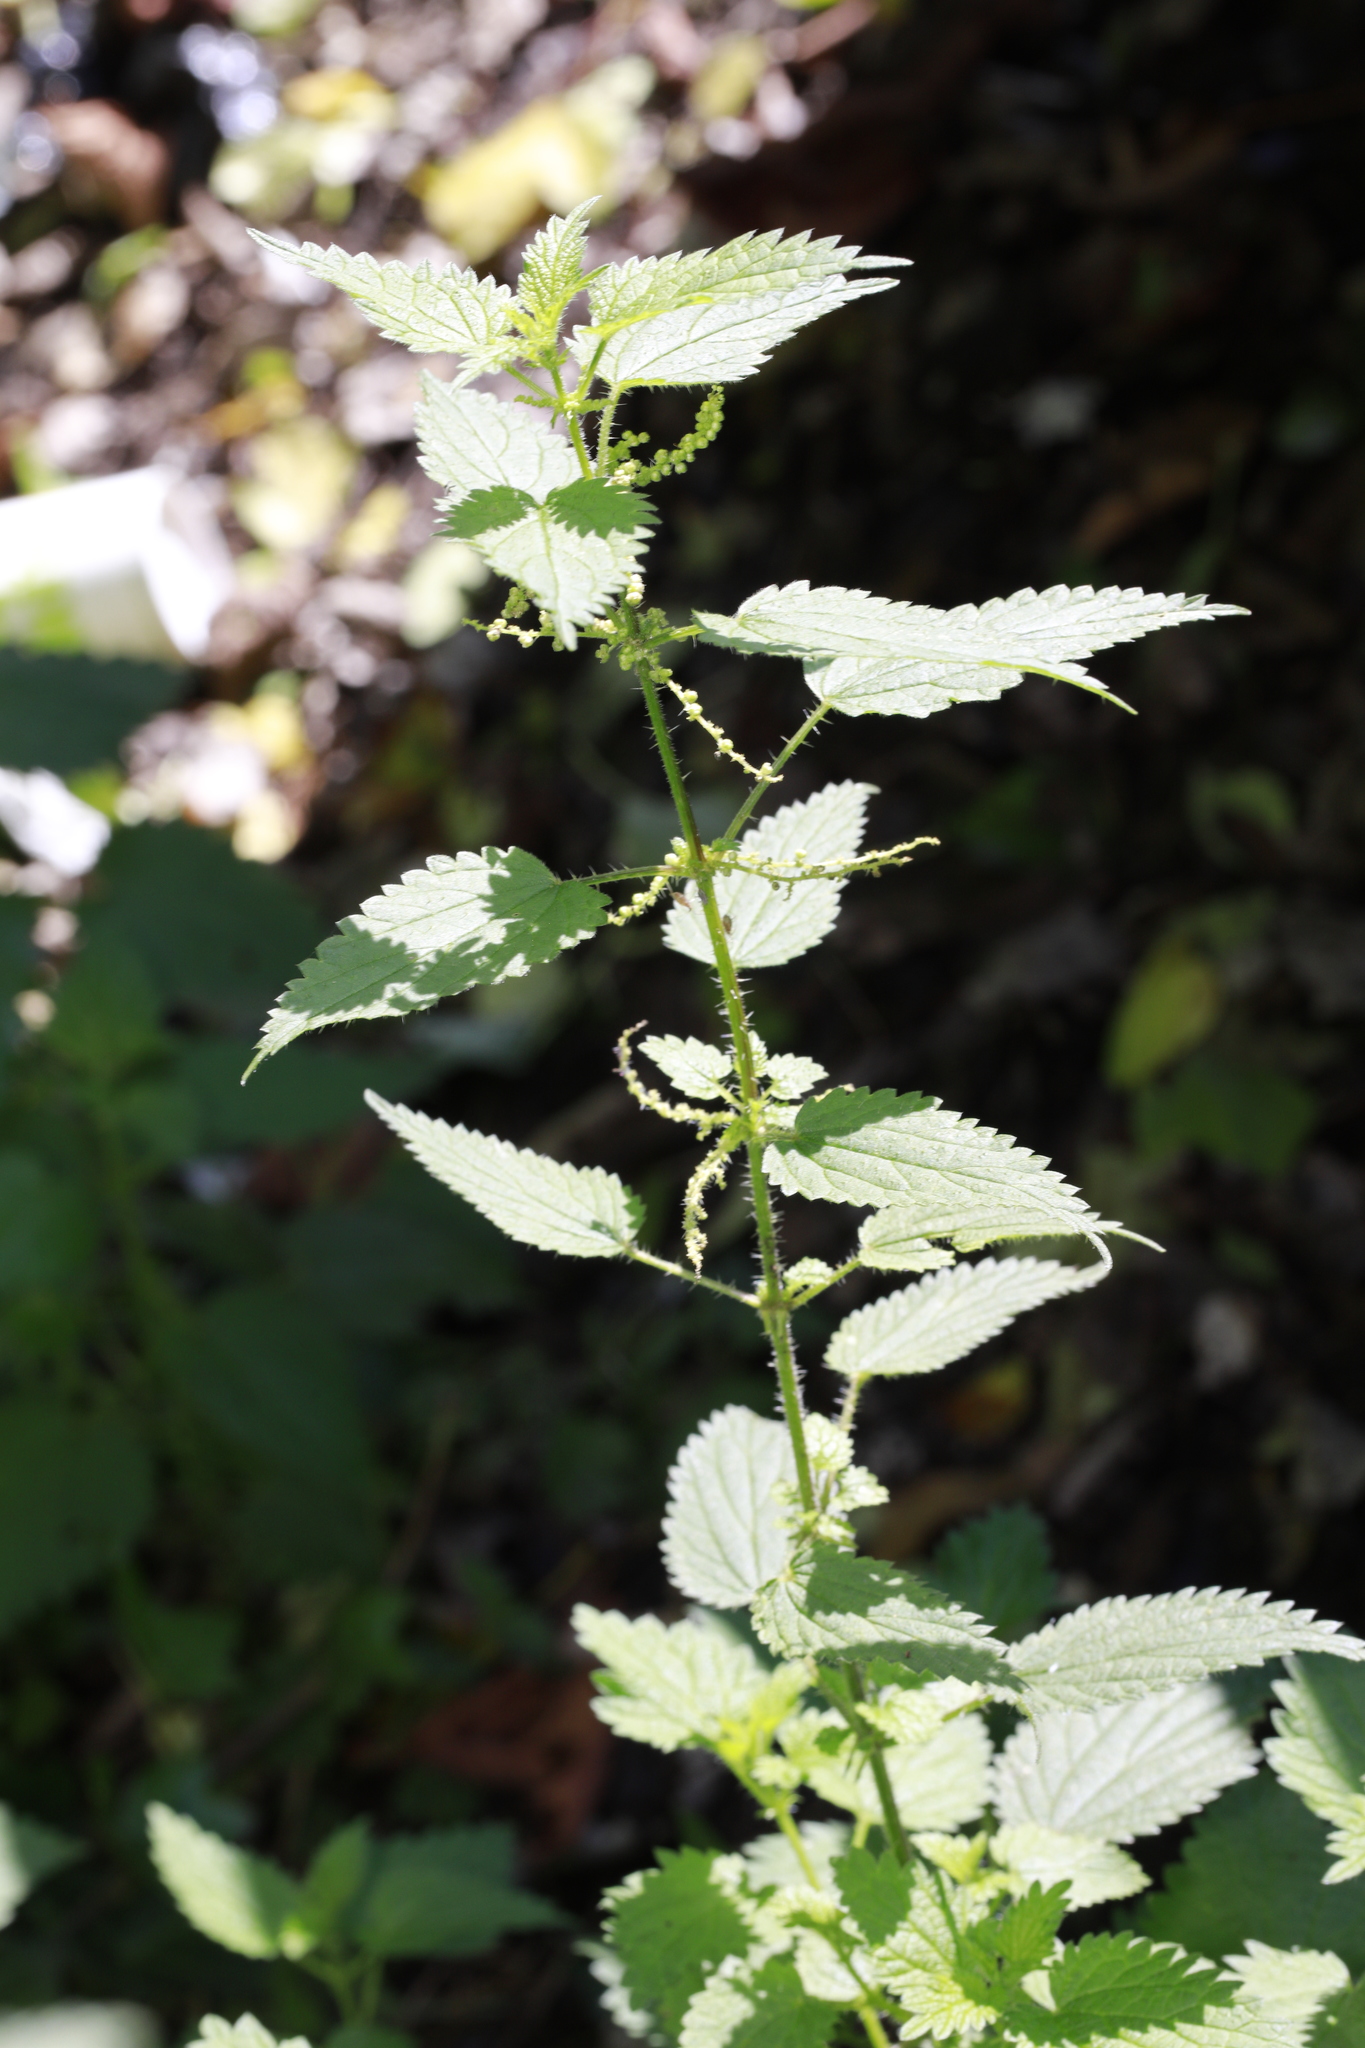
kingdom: Plantae
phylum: Tracheophyta
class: Magnoliopsida
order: Rosales
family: Urticaceae
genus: Urtica
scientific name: Urtica dioica
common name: Common nettle
